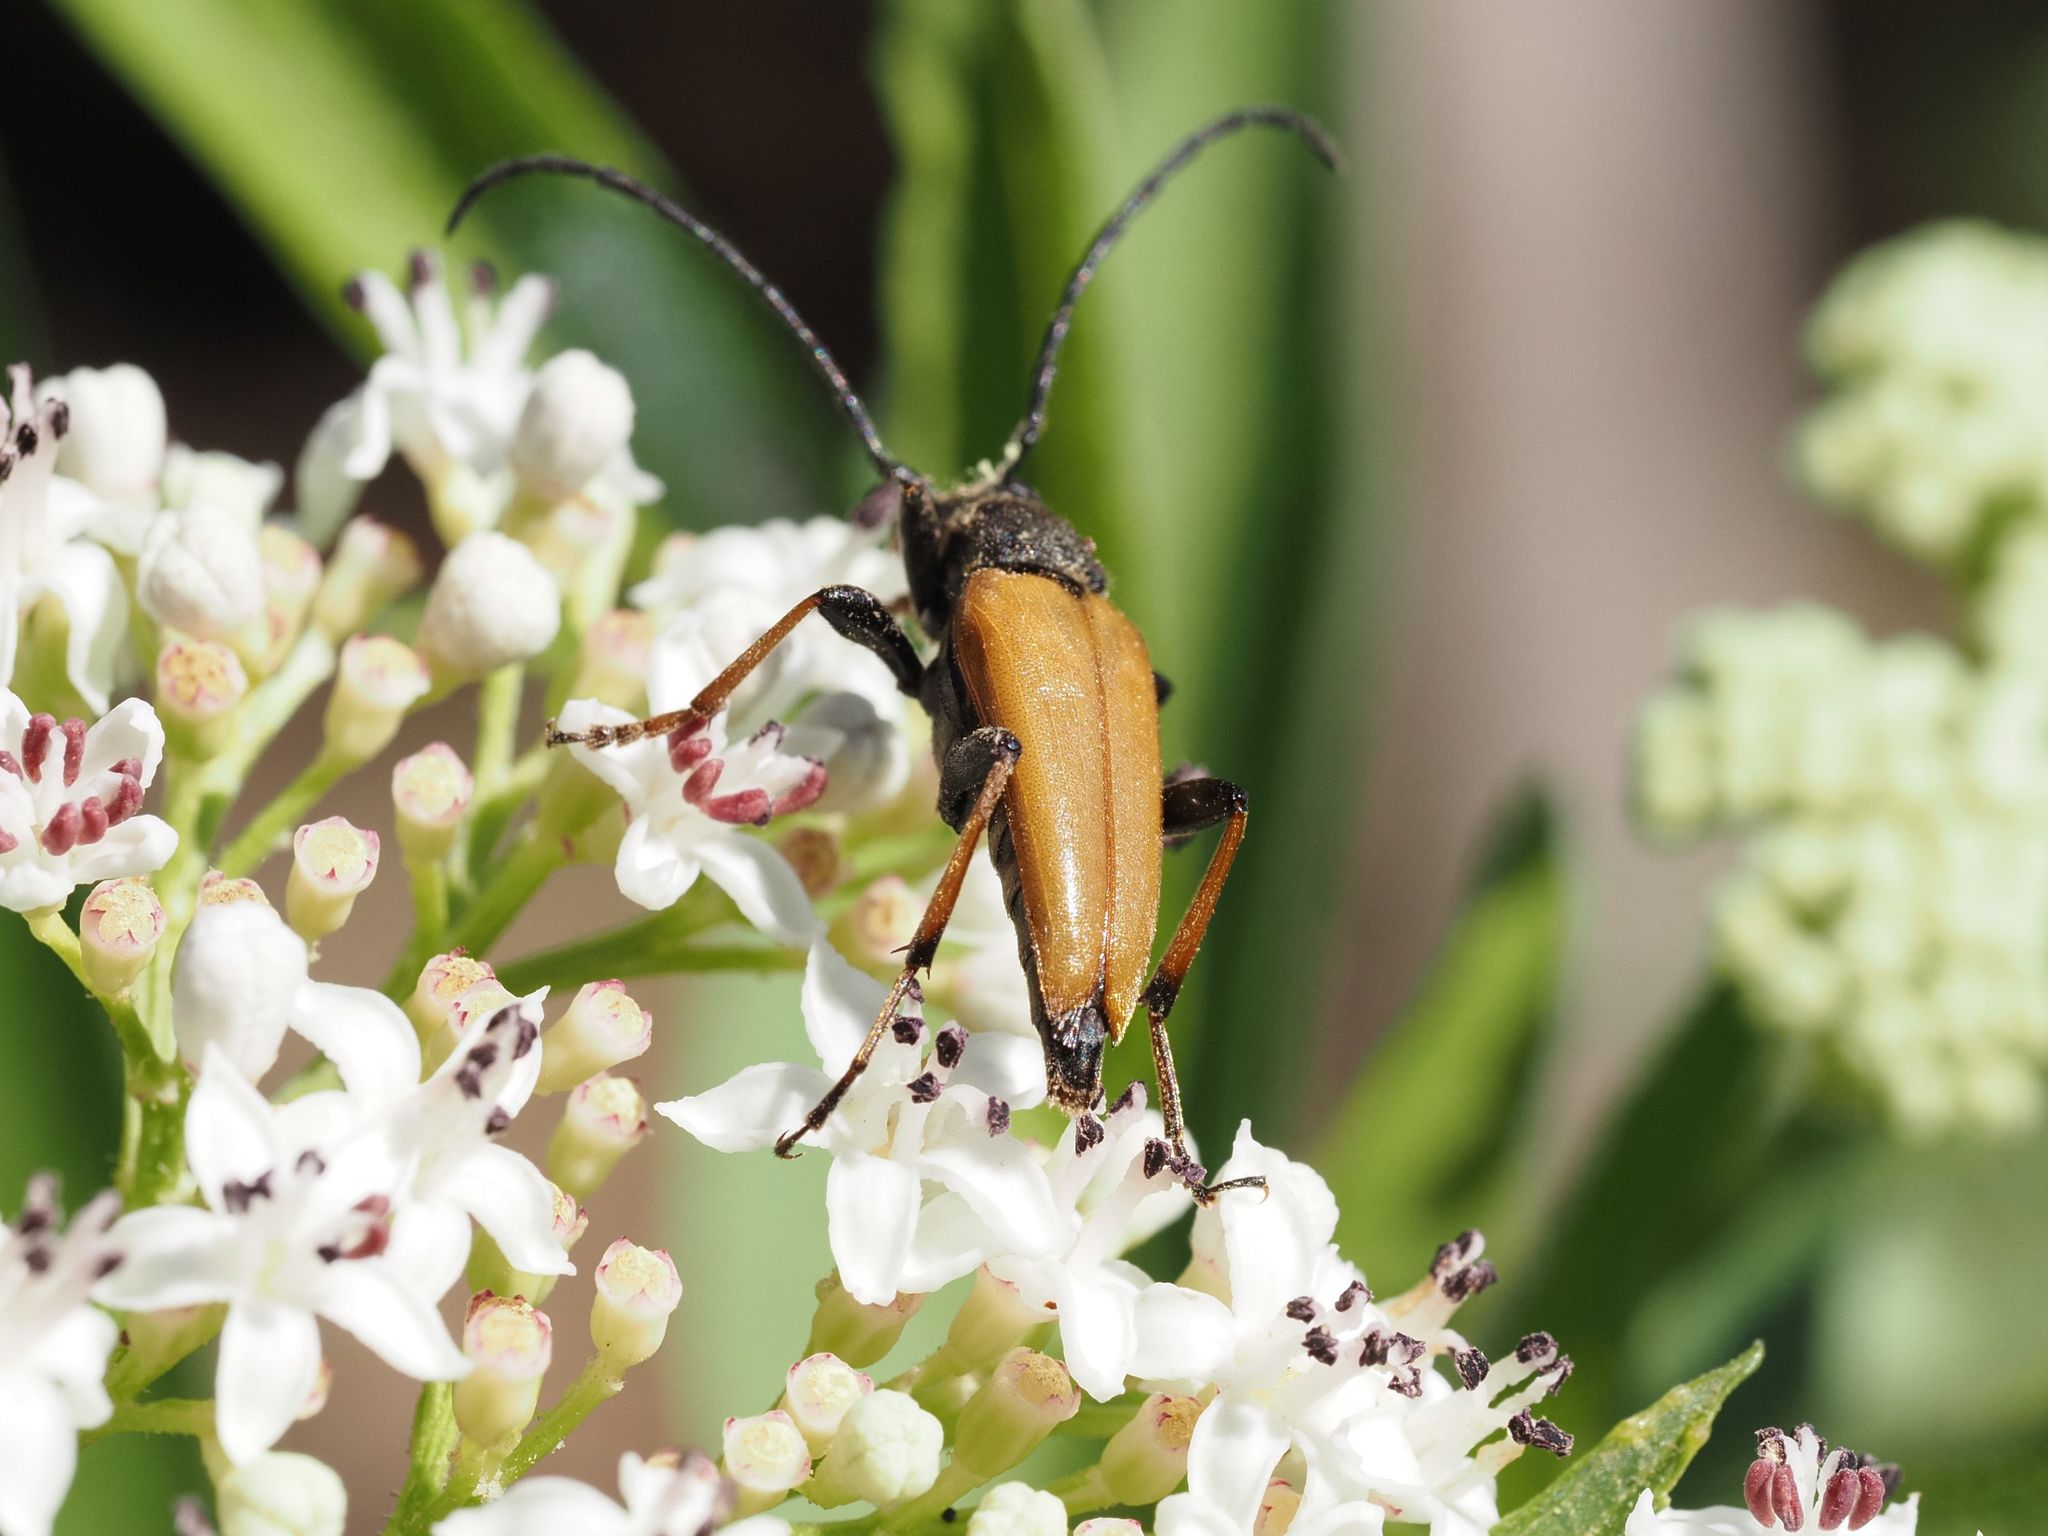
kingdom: Animalia
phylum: Arthropoda
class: Insecta
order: Coleoptera
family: Cerambycidae
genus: Stictoleptura
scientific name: Stictoleptura rubra
